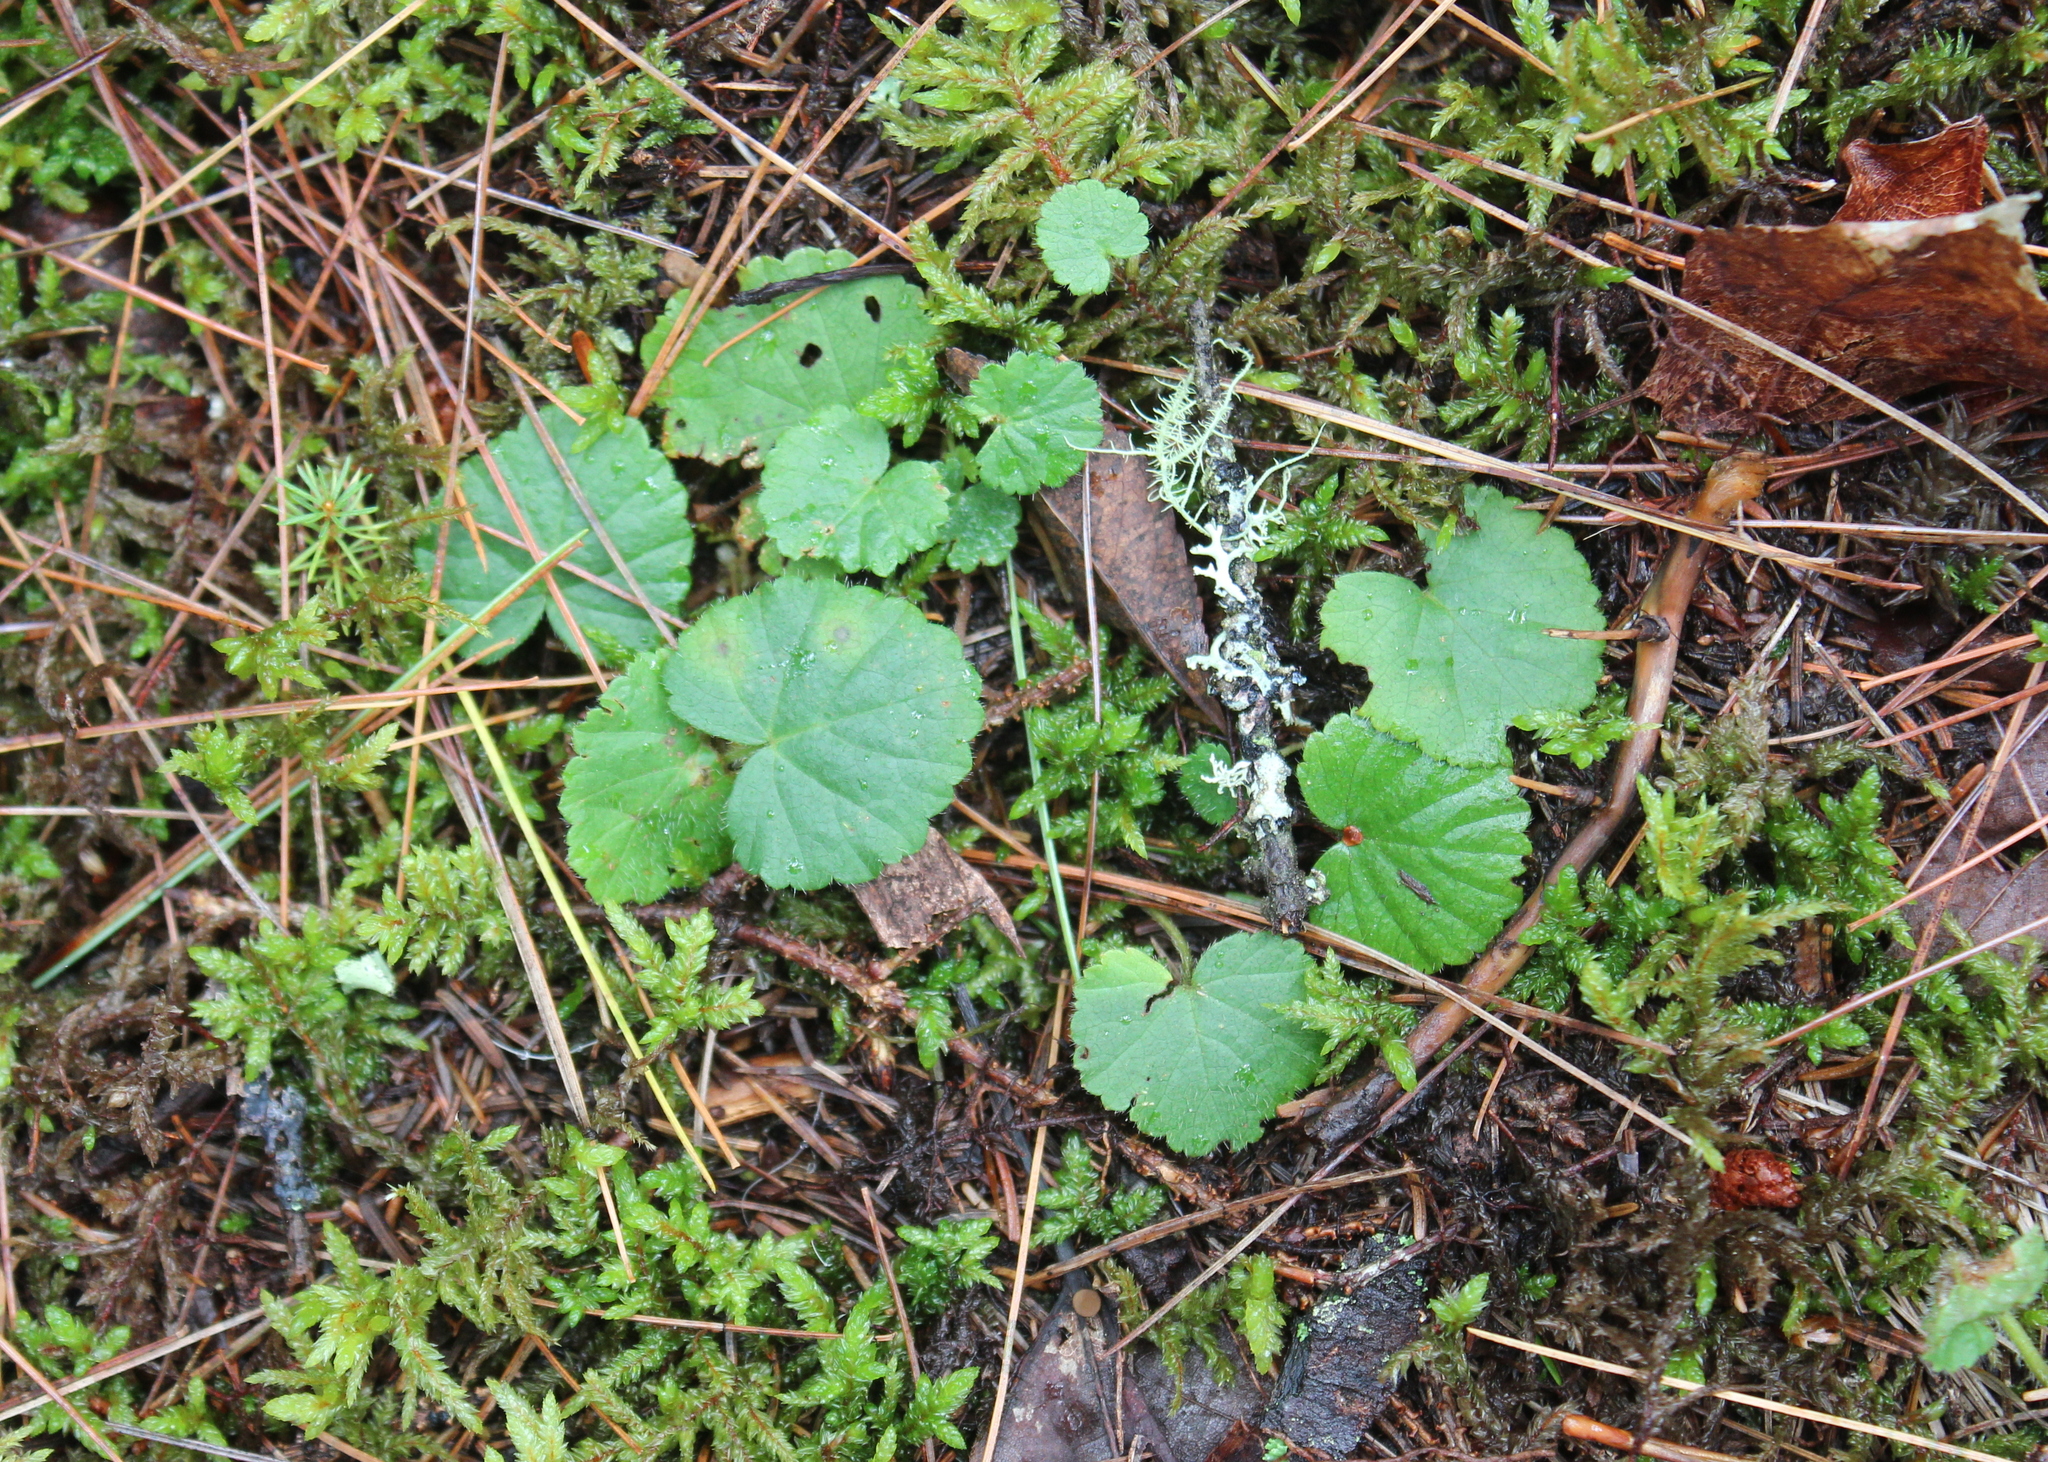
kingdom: Plantae
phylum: Tracheophyta
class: Magnoliopsida
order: Rosales
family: Rosaceae
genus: Dalibarda
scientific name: Dalibarda repens
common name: Dewdrop
